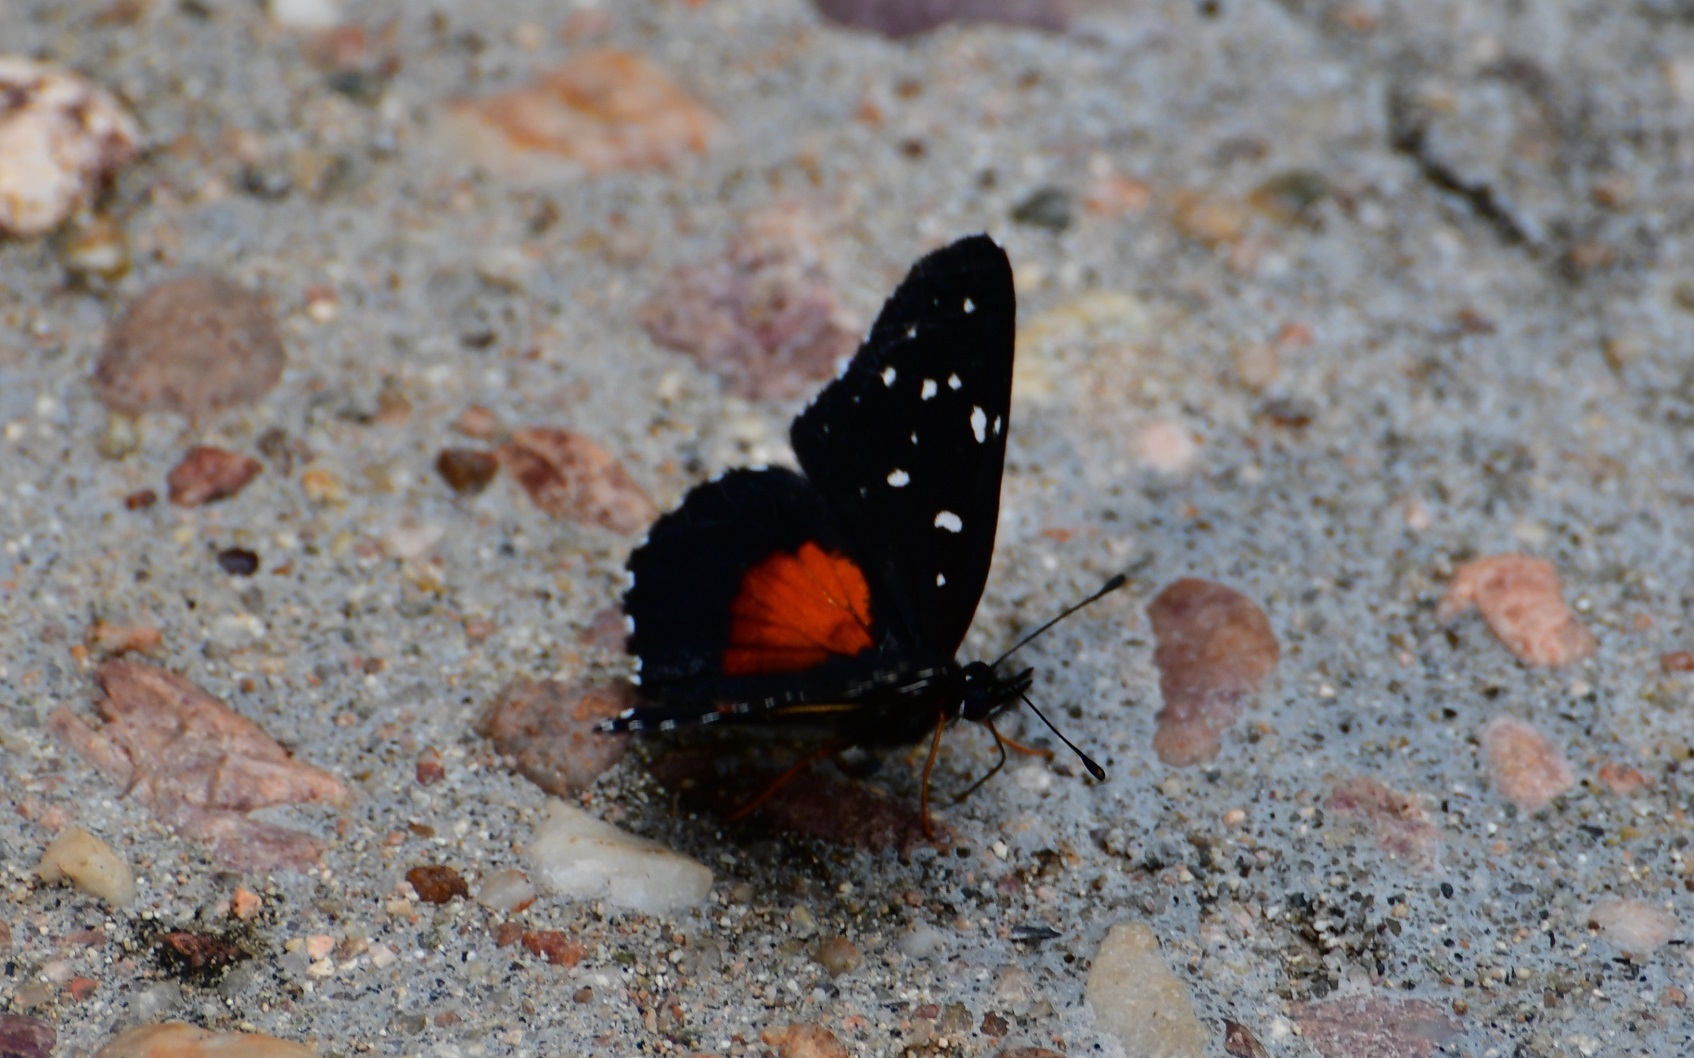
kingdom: Animalia
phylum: Arthropoda
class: Insecta
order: Lepidoptera
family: Nymphalidae
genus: Chlosyne
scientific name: Chlosyne rosita
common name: Rosita patch
